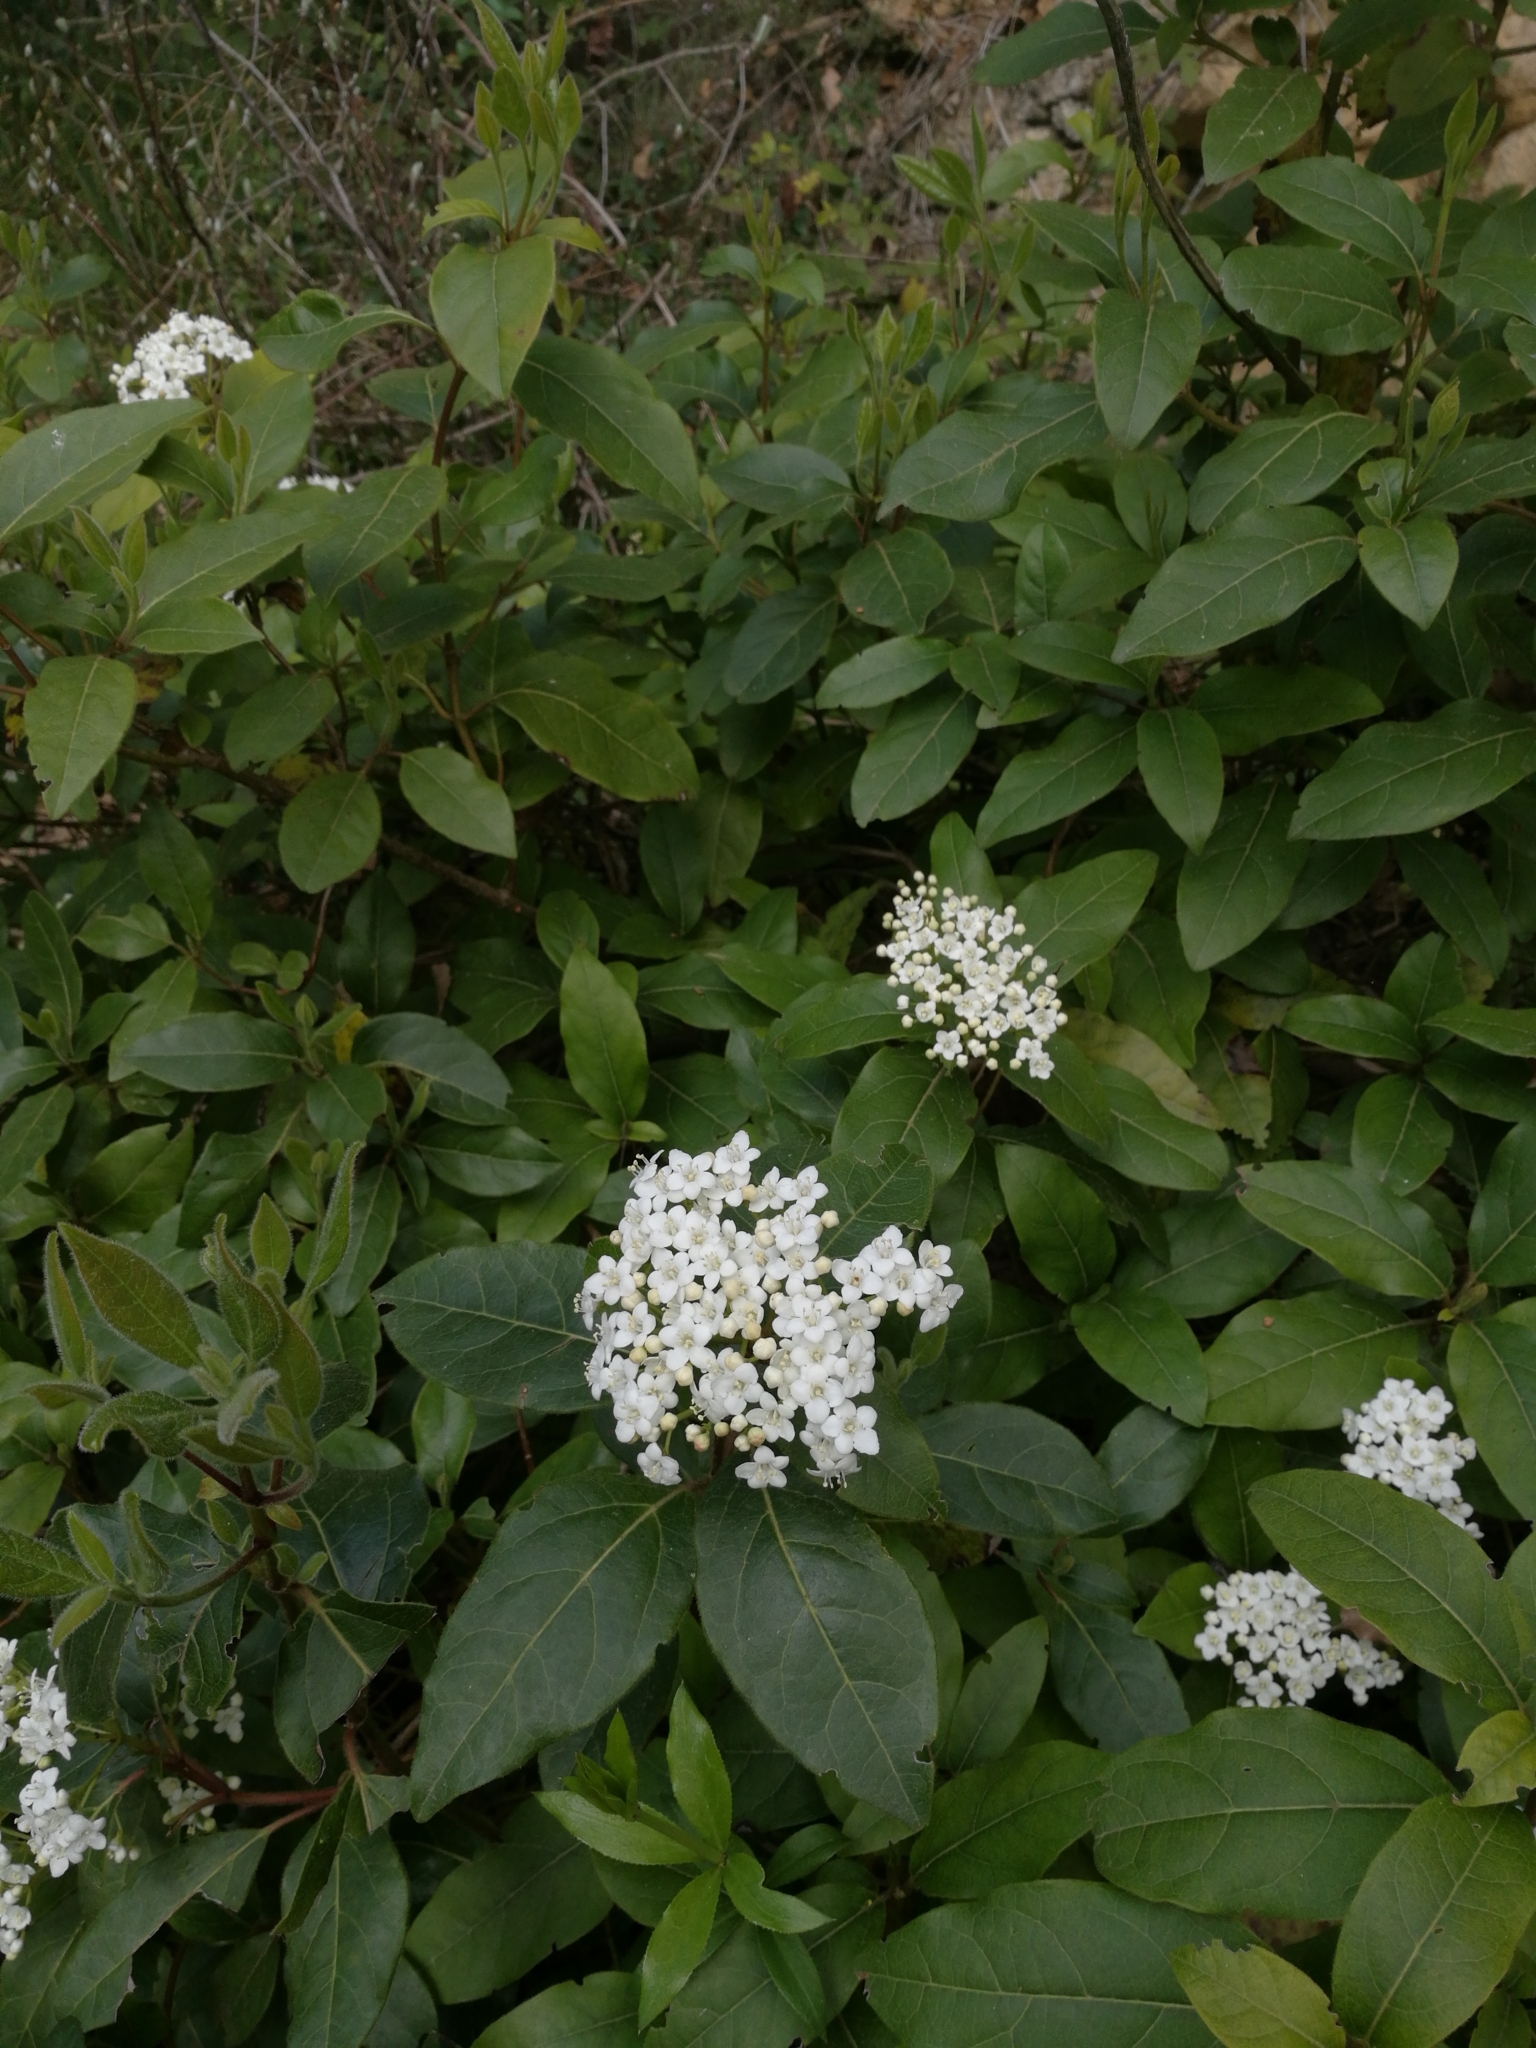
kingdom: Plantae
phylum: Tracheophyta
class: Magnoliopsida
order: Dipsacales
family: Viburnaceae
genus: Viburnum
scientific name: Viburnum tinus
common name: Laurustinus
